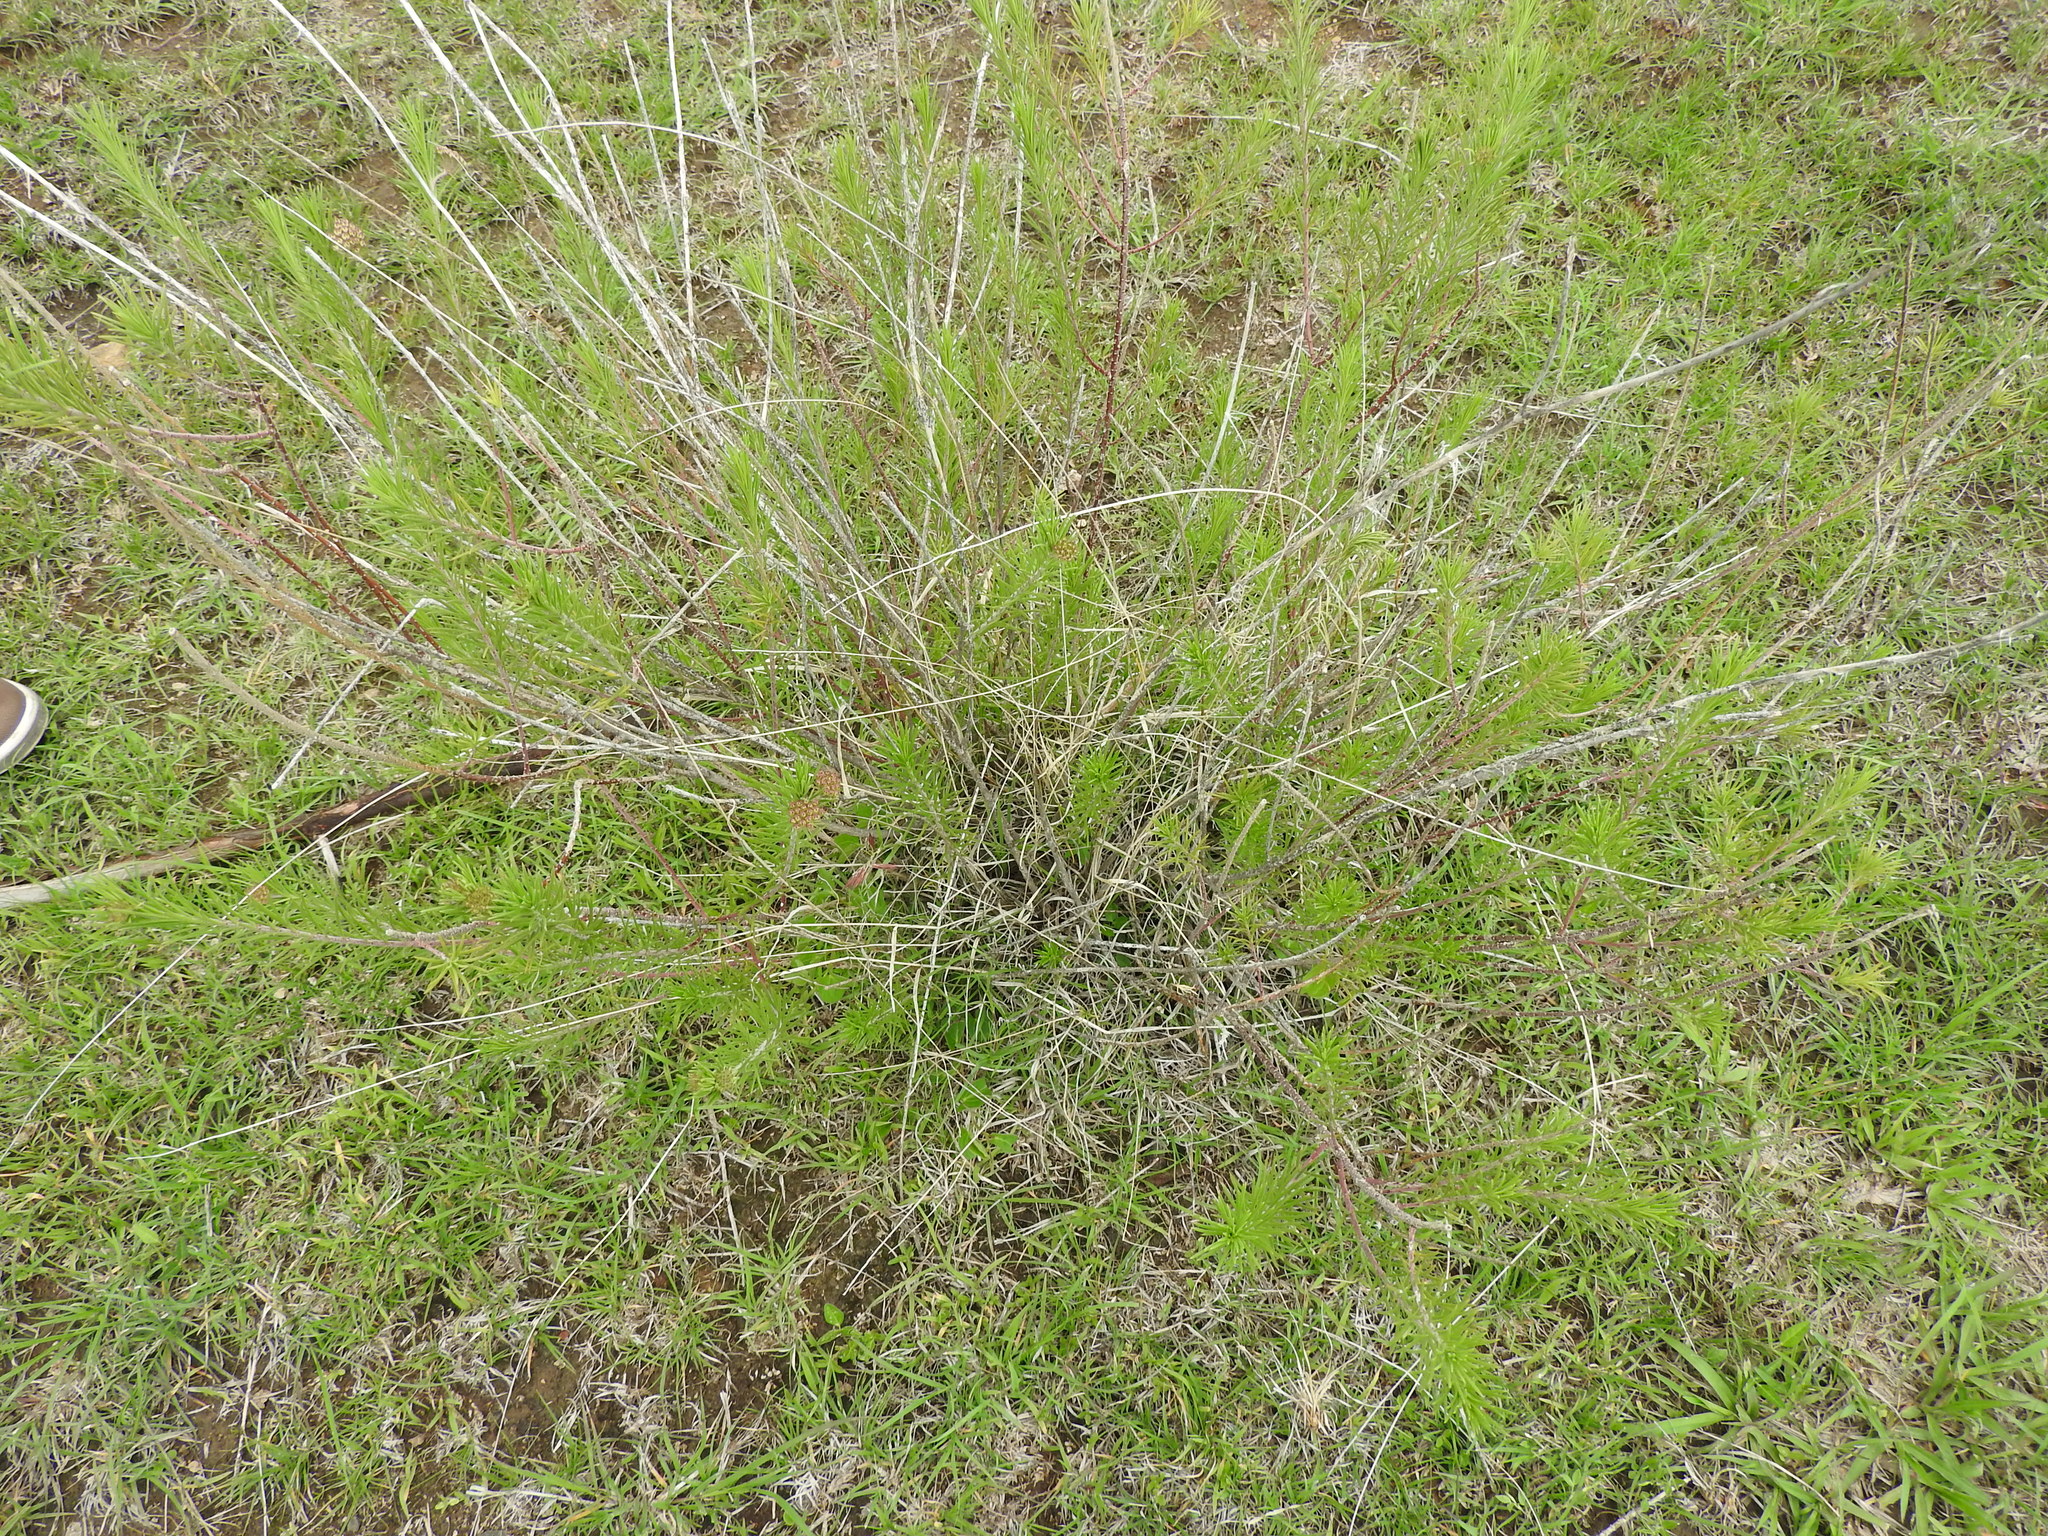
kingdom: Plantae
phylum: Tracheophyta
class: Magnoliopsida
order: Gentianales
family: Apocynaceae
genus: Asclepias
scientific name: Asclepias linaria
